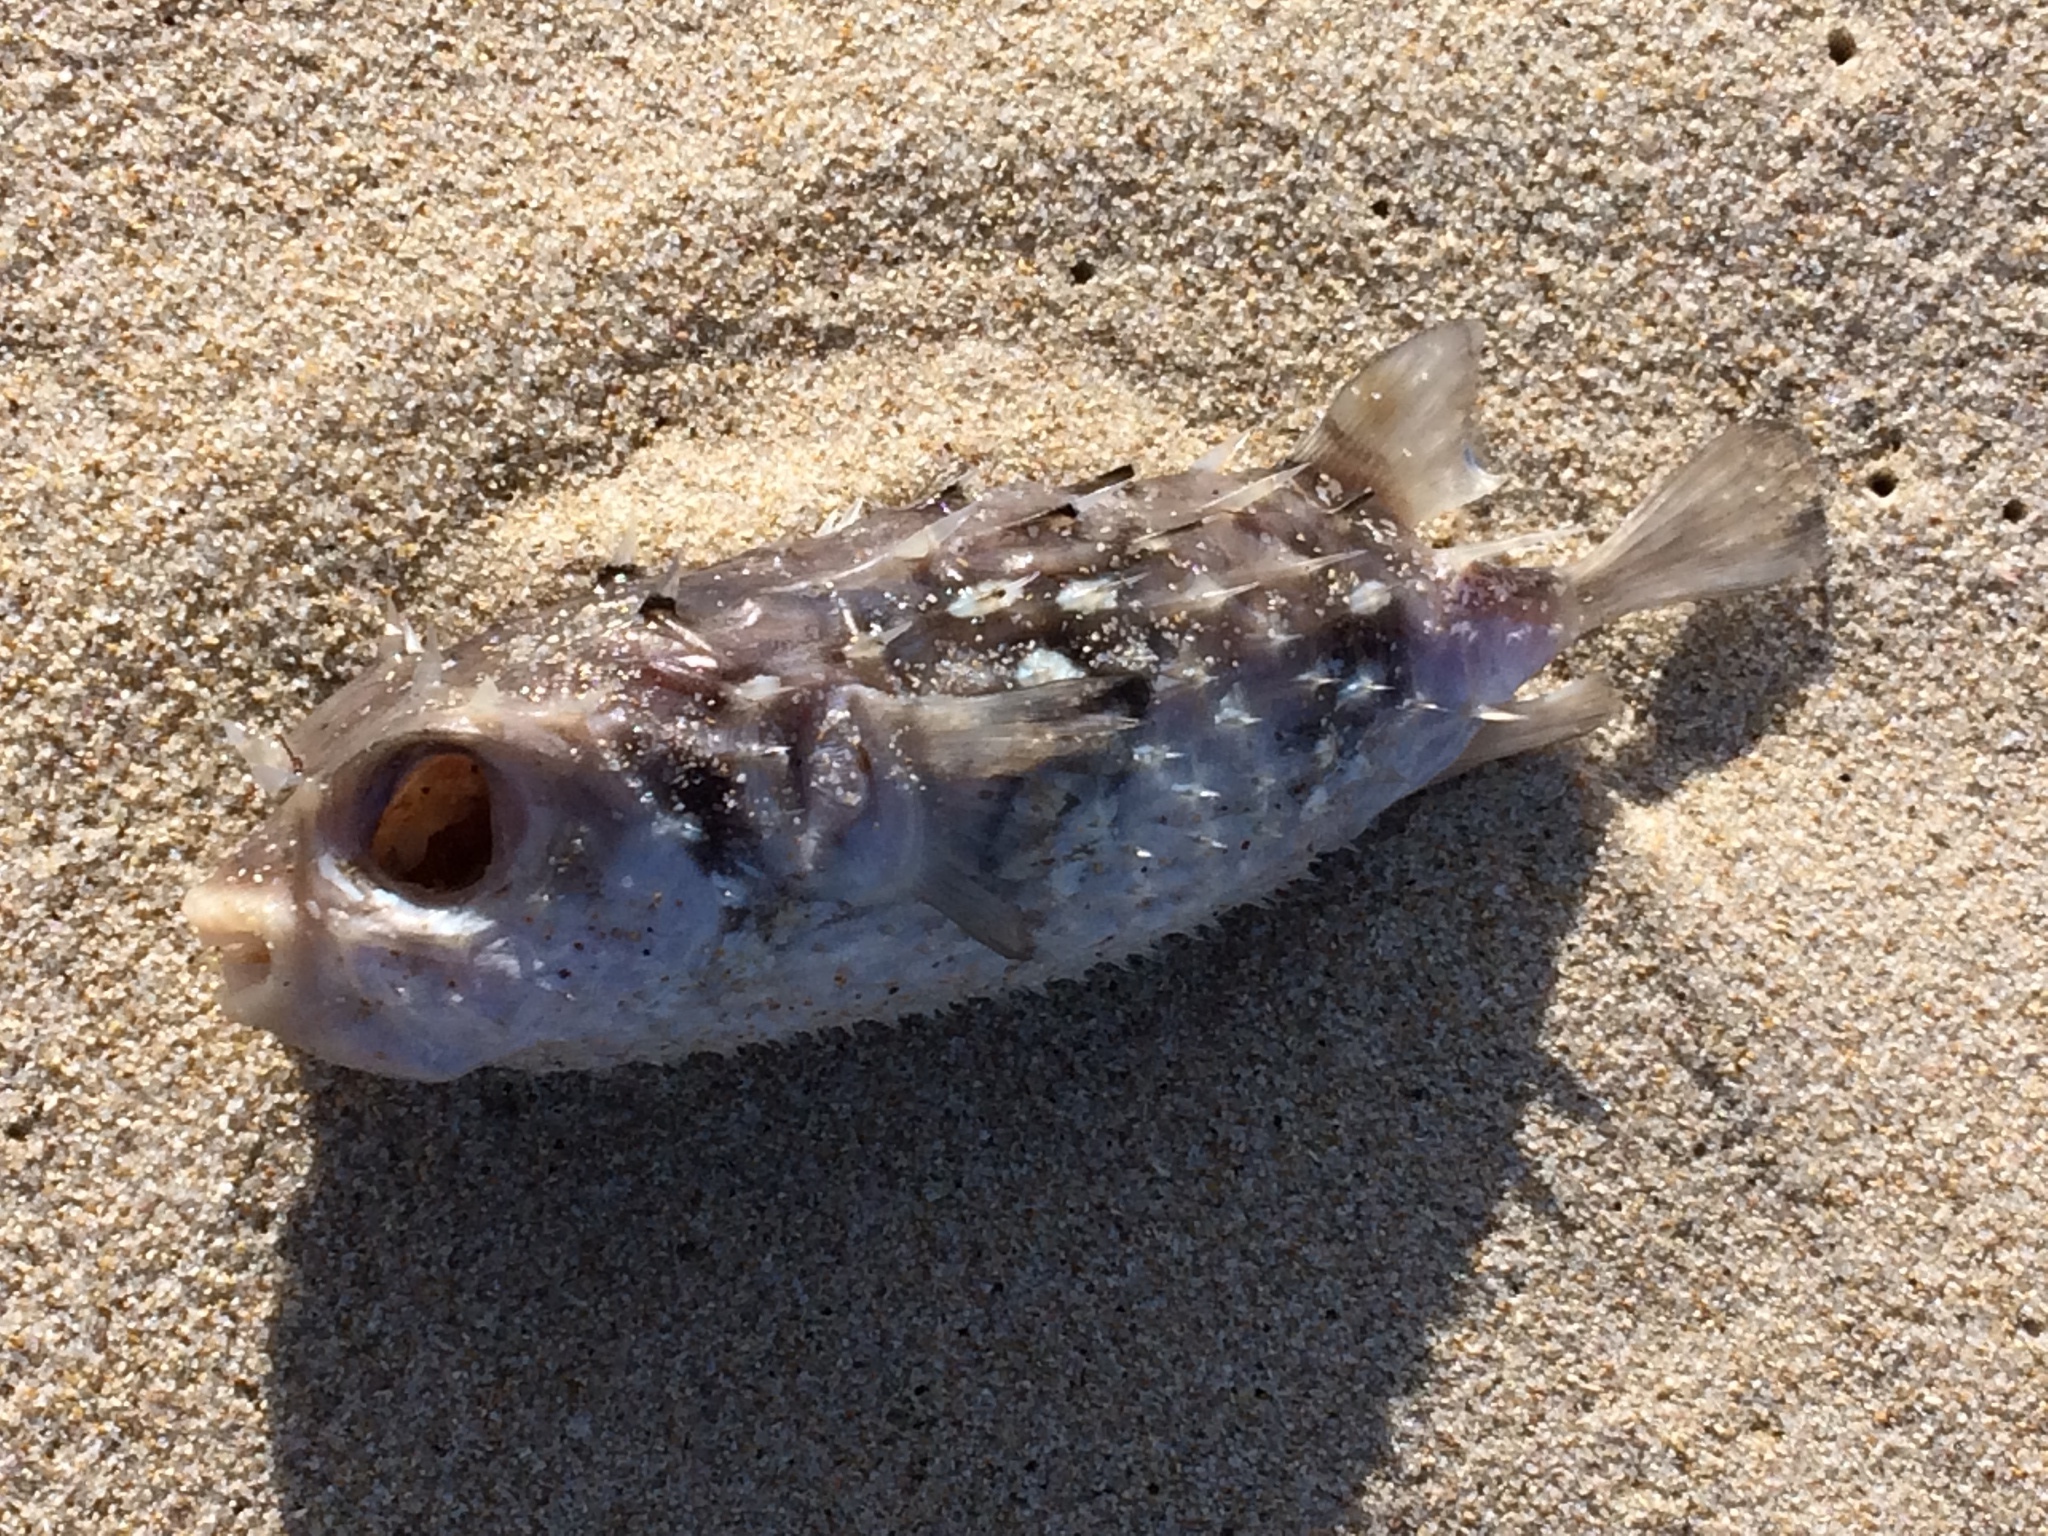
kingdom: Animalia
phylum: Chordata
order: Tetraodontiformes
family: Diodontidae
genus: Allomycterus
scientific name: Allomycterus pilatus
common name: No common name
